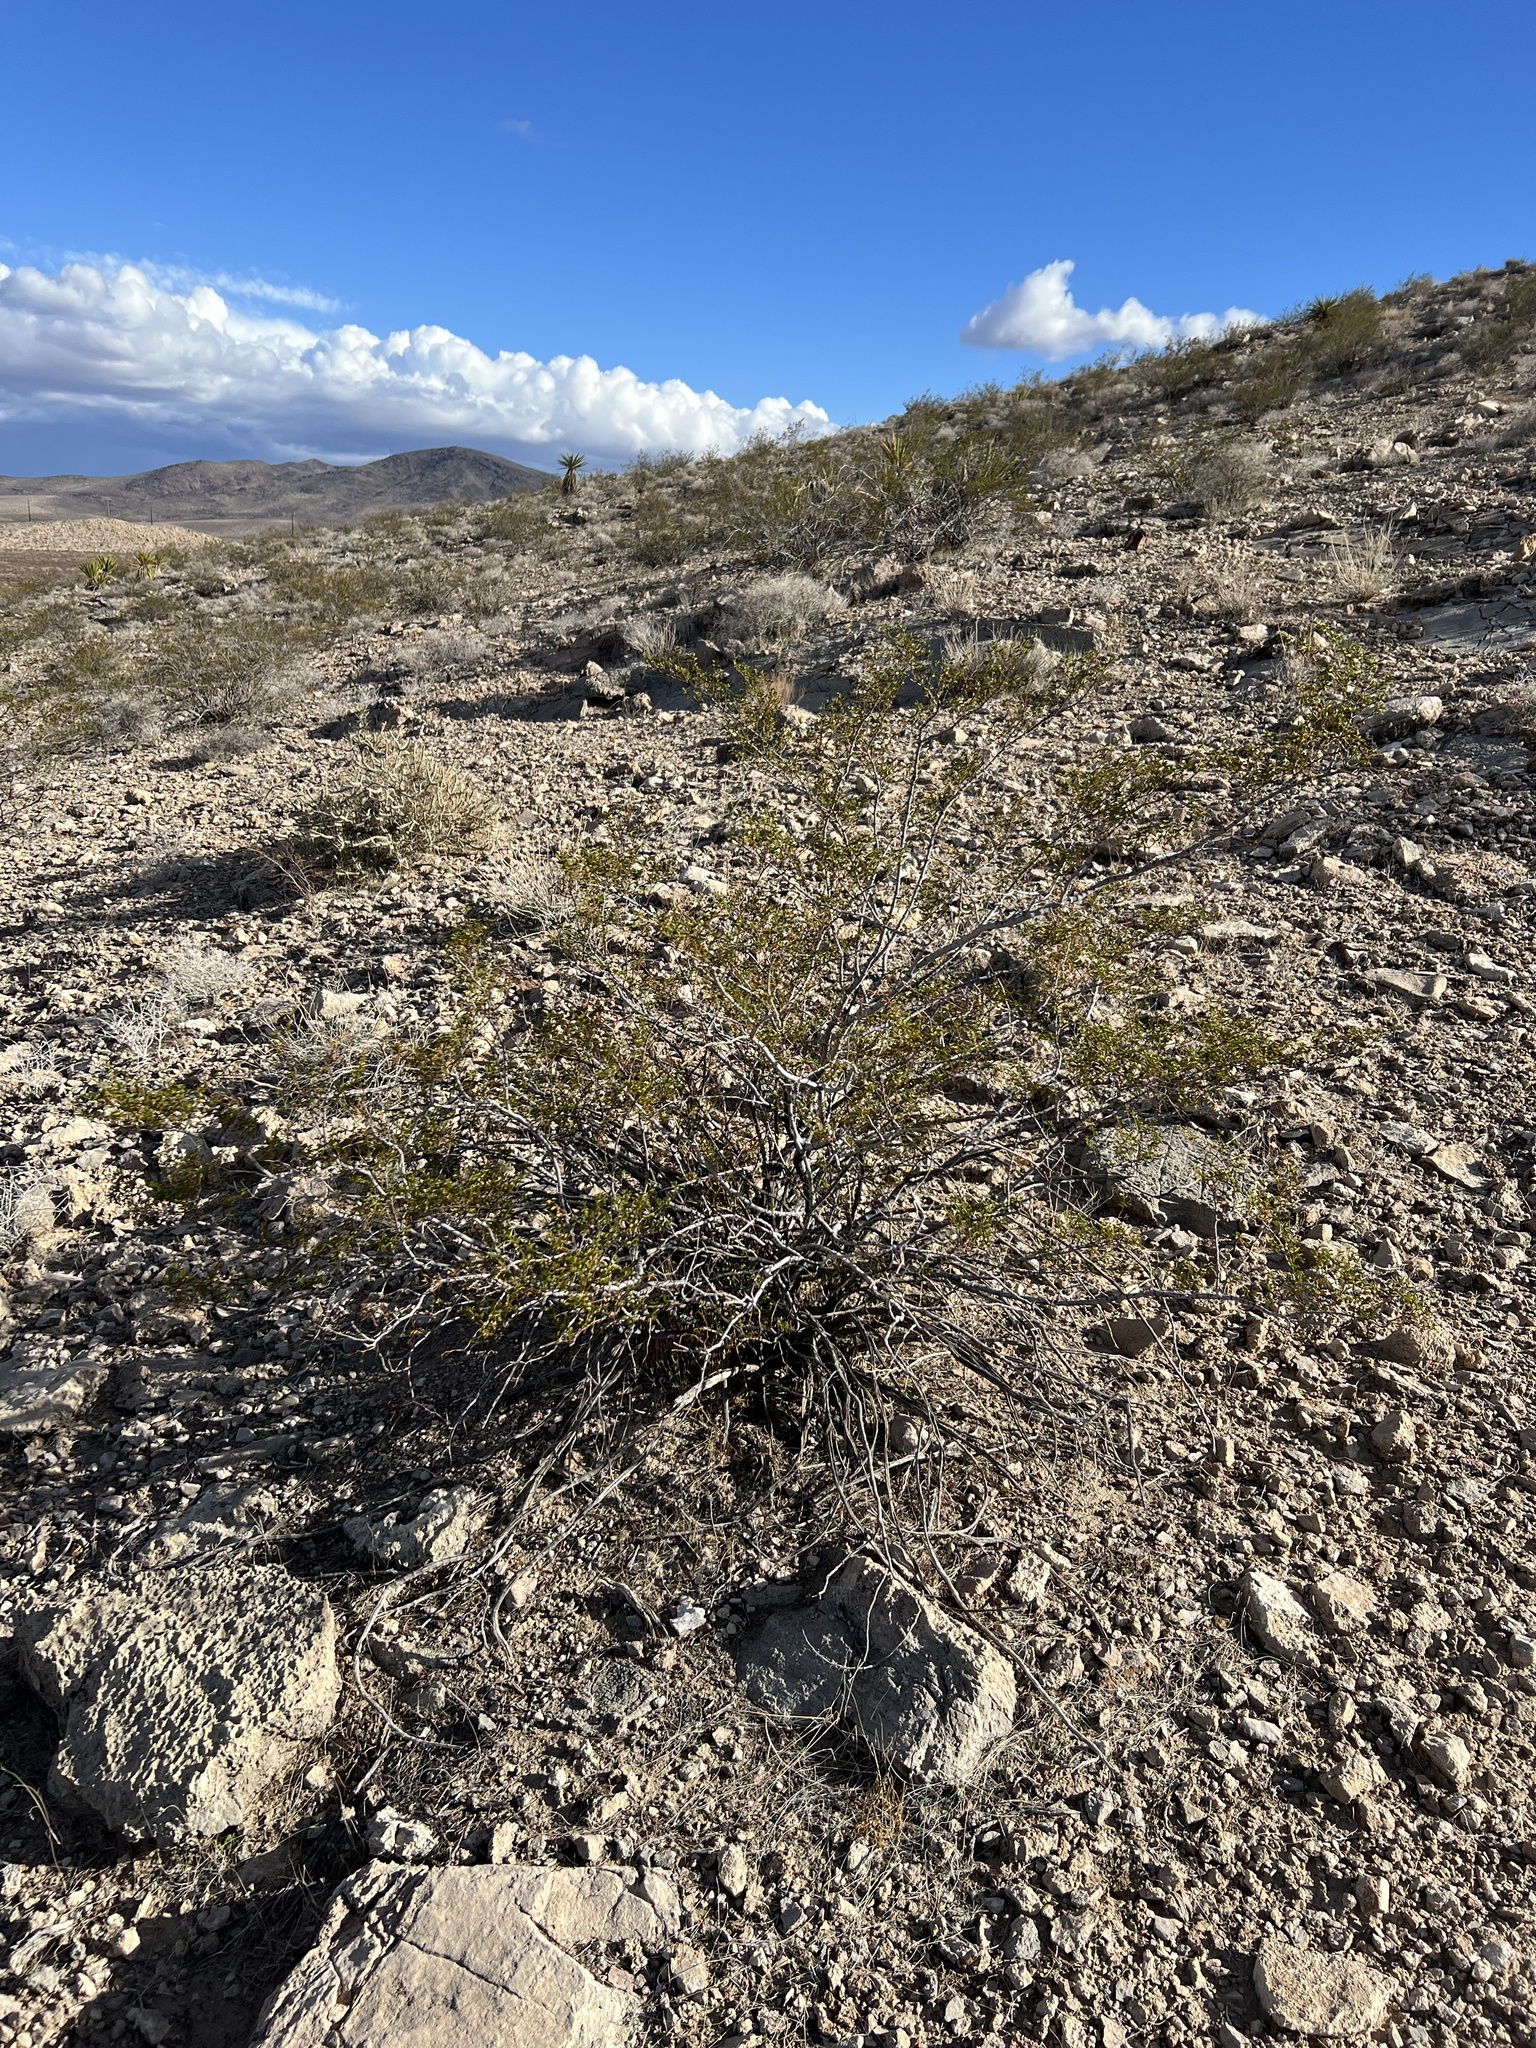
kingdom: Plantae
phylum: Tracheophyta
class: Magnoliopsida
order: Zygophyllales
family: Zygophyllaceae
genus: Larrea
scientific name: Larrea tridentata
